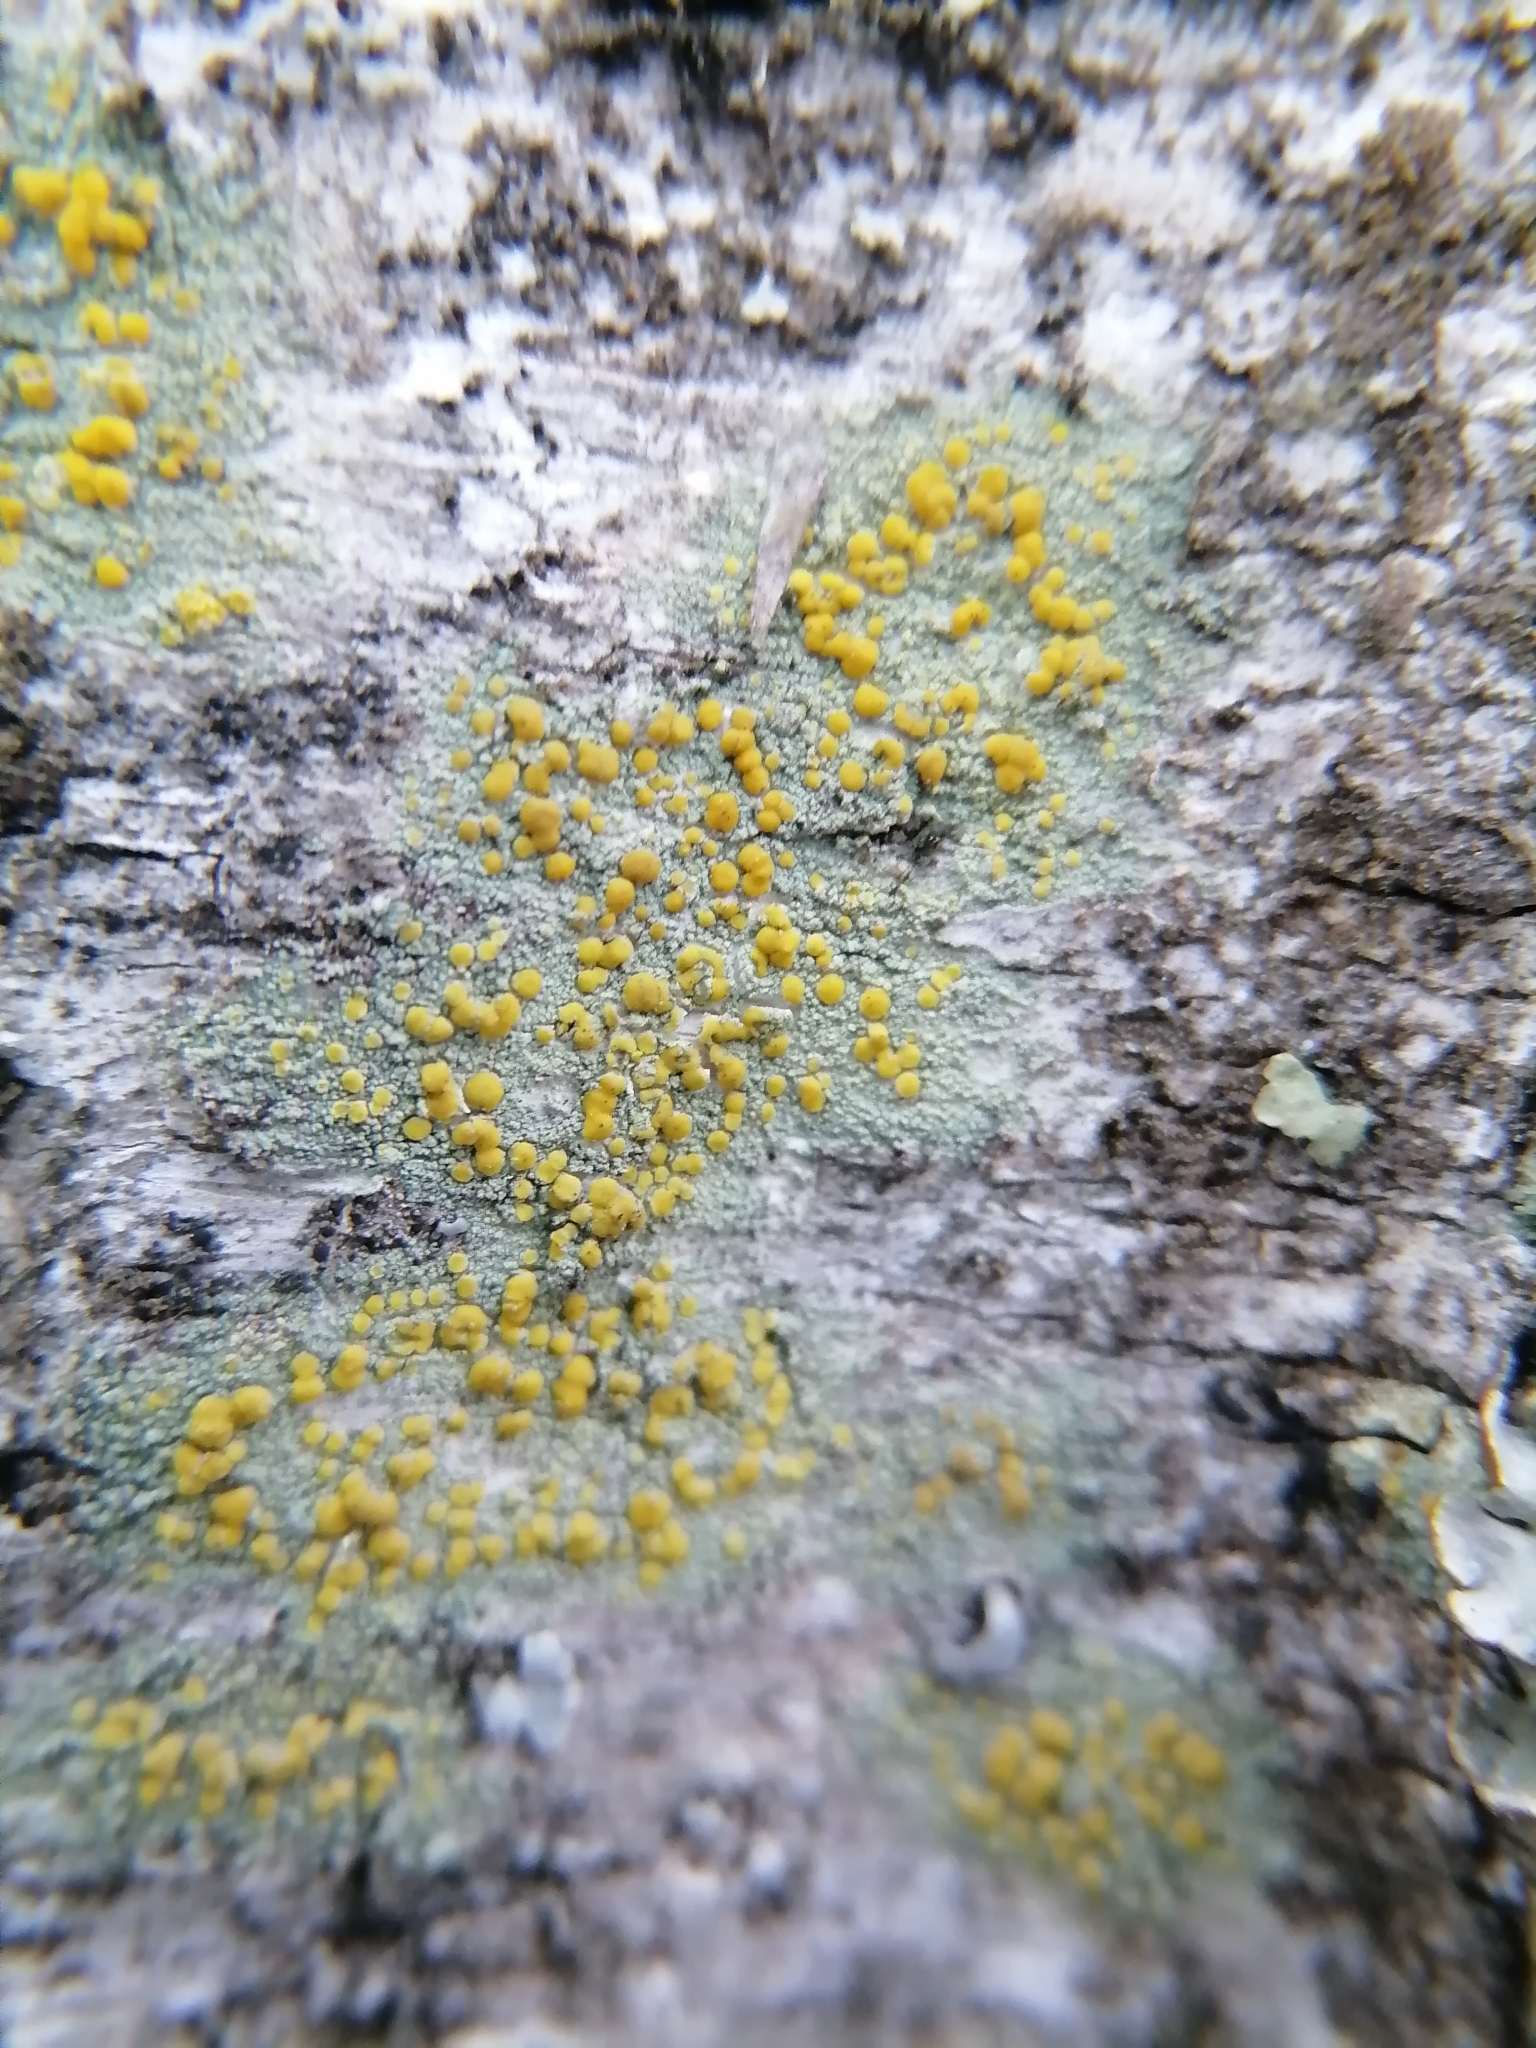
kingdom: Fungi
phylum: Ascomycota
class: Lecanoromycetes
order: Lecanorales
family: Lecanoraceae
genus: Lecanora
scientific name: Lecanora symmicta
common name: Fused rim lichen
